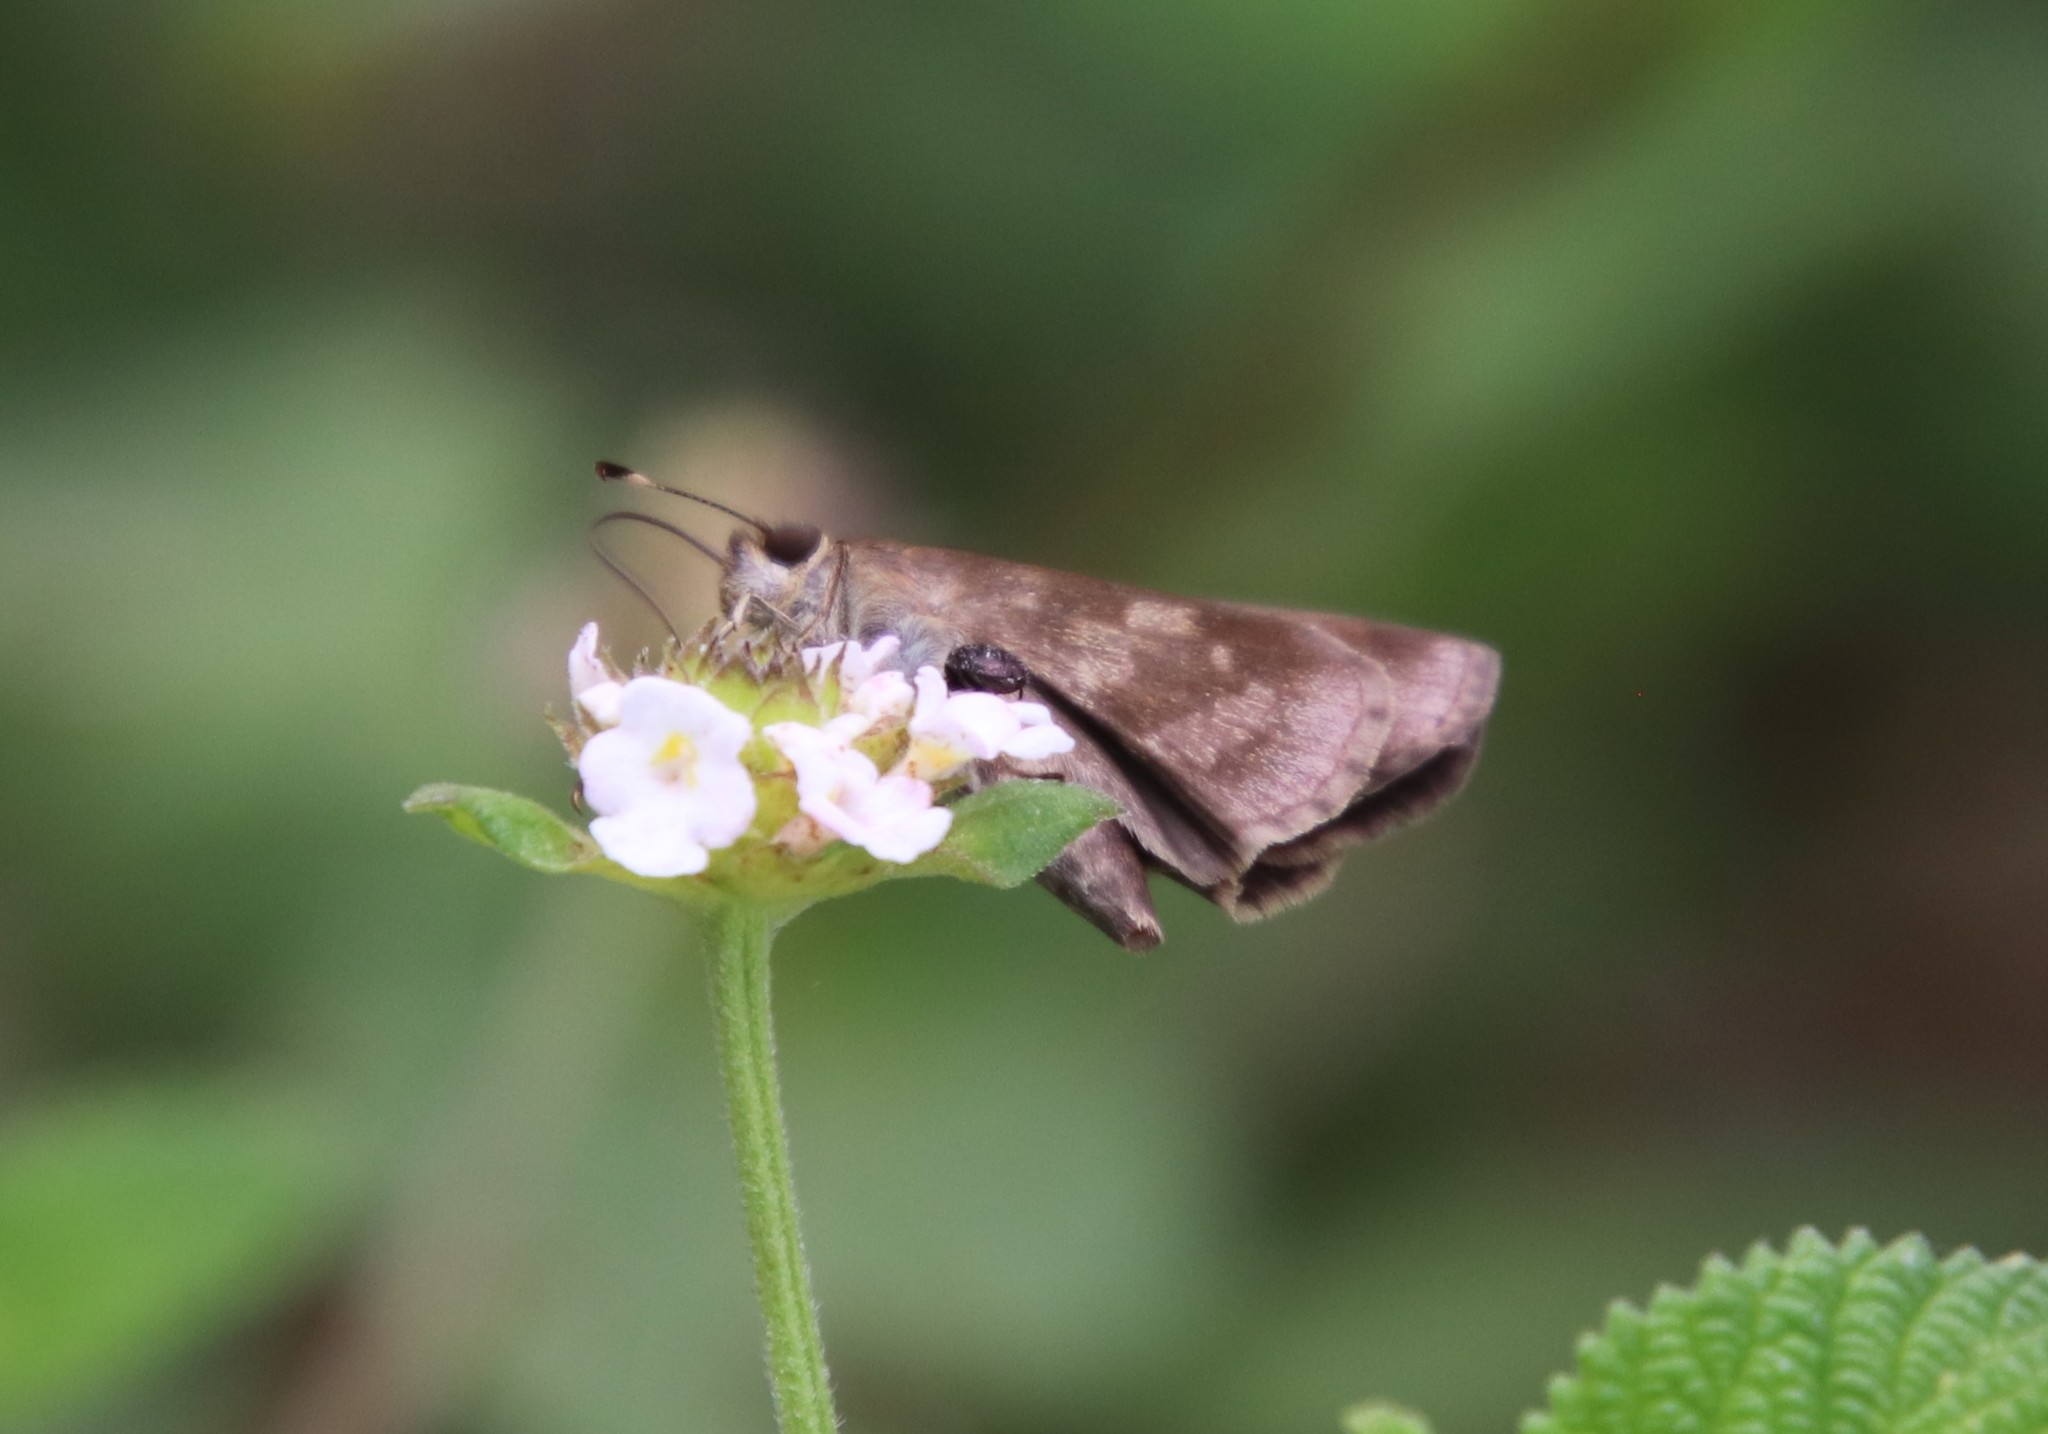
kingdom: Animalia
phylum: Arthropoda
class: Insecta
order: Lepidoptera
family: Hesperiidae
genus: Cymaenes
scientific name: Cymaenes
